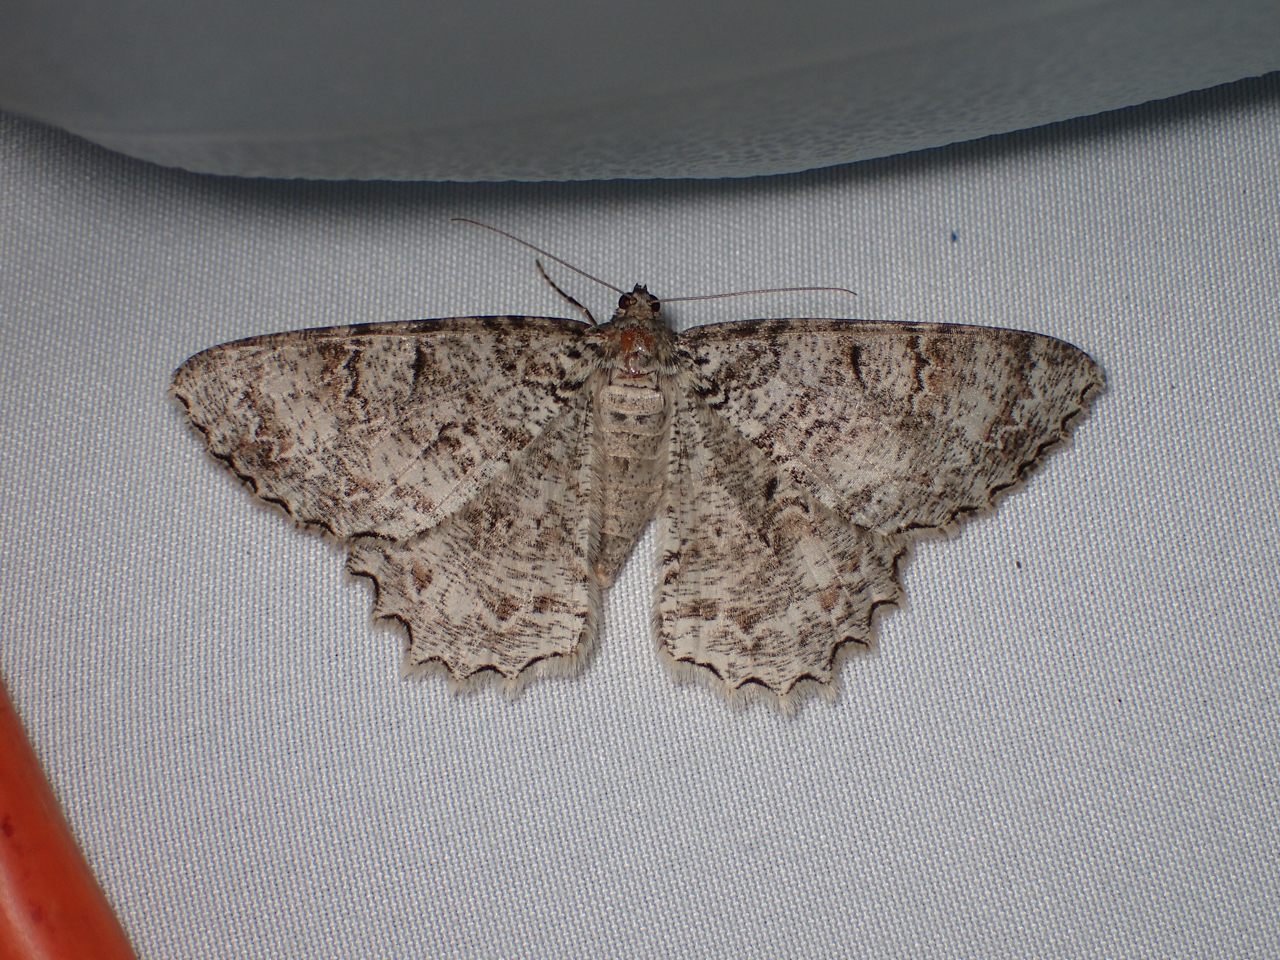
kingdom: Animalia
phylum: Arthropoda
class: Insecta
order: Lepidoptera
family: Geometridae
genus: Epimecis
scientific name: Epimecis hortaria
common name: Tulip-tree beauty
